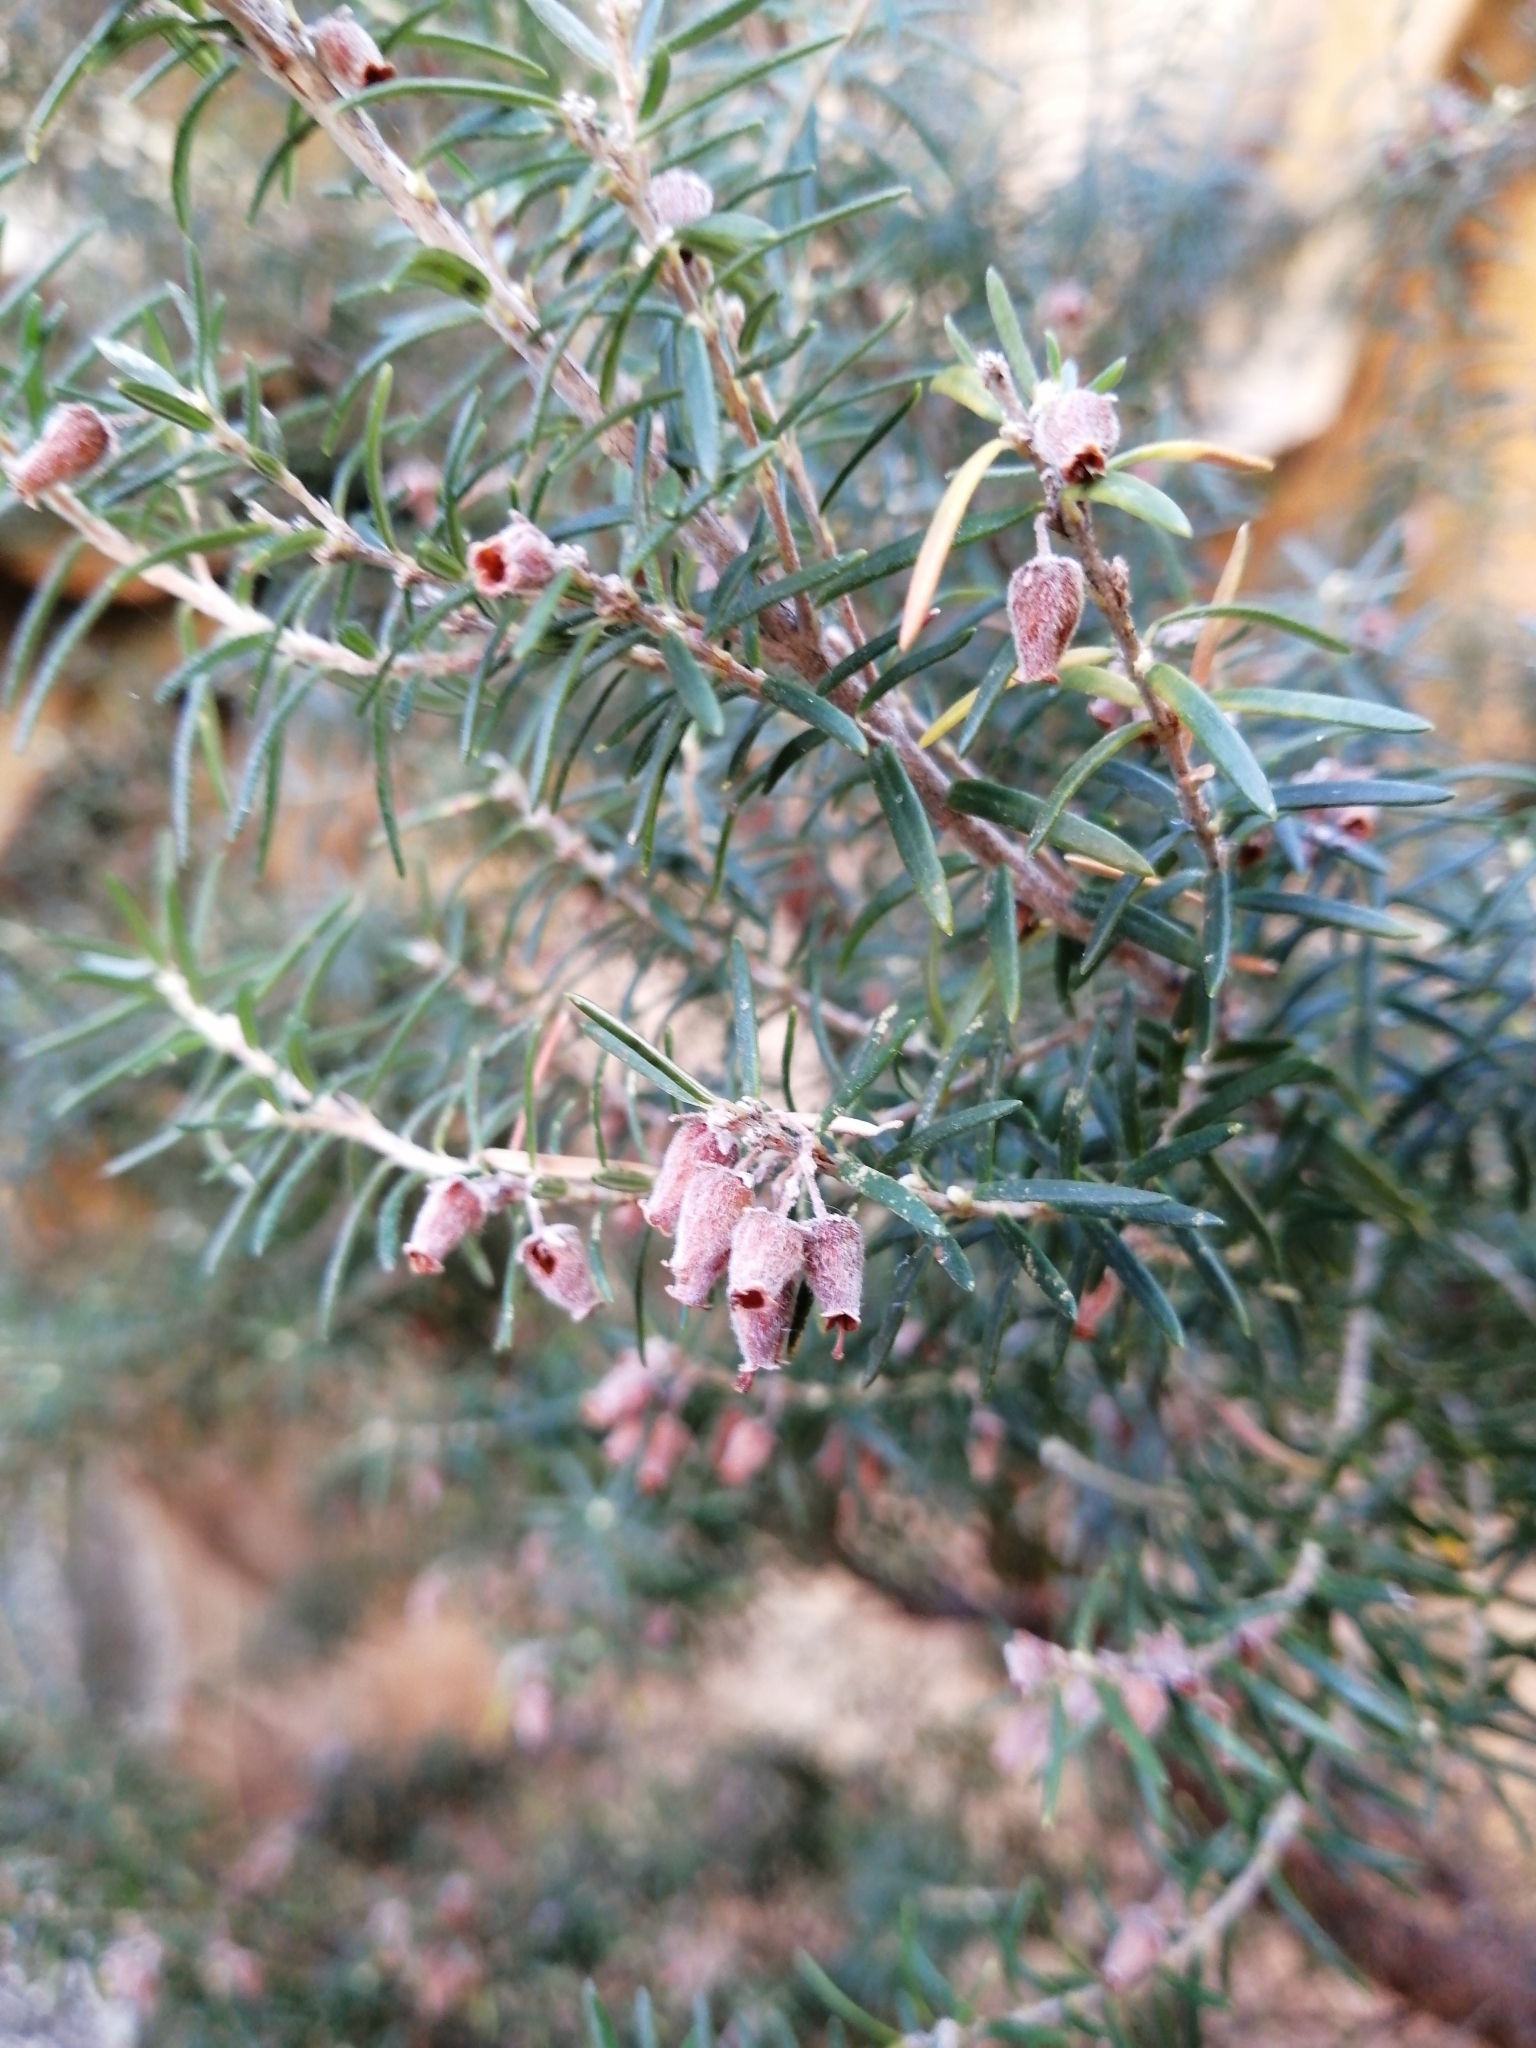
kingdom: Plantae
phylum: Tracheophyta
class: Magnoliopsida
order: Ericales
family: Ericaceae
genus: Erica
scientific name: Erica caffra
